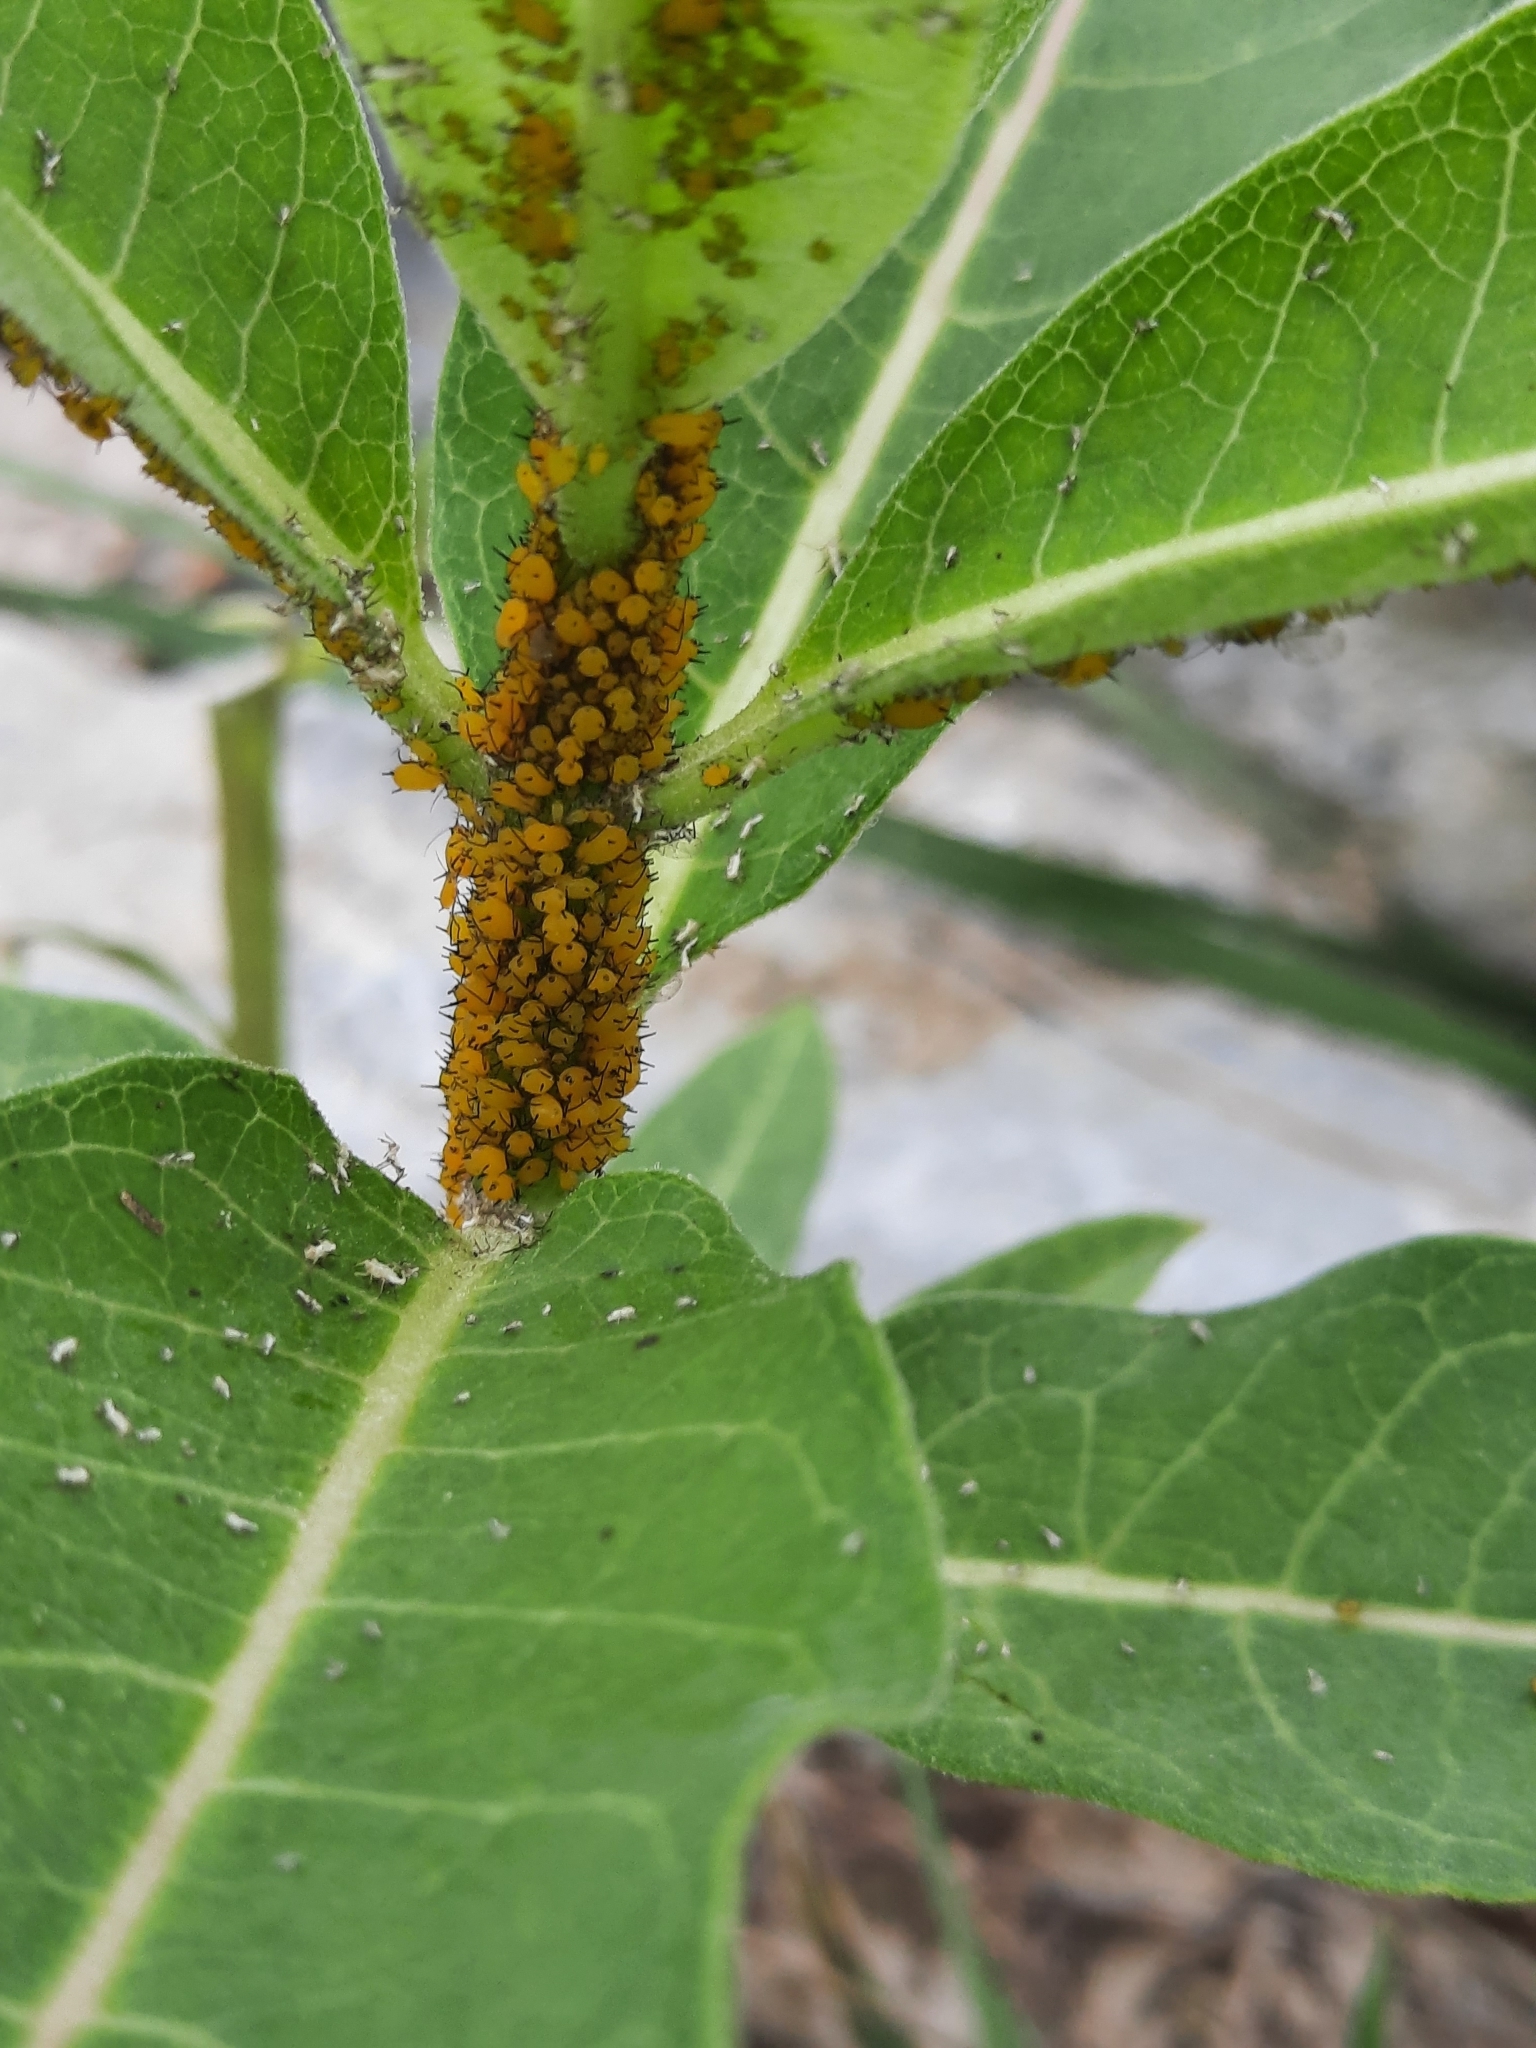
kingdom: Animalia
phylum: Arthropoda
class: Insecta
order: Hemiptera
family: Aphididae
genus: Aphis
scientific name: Aphis nerii
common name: Oleander aphid
